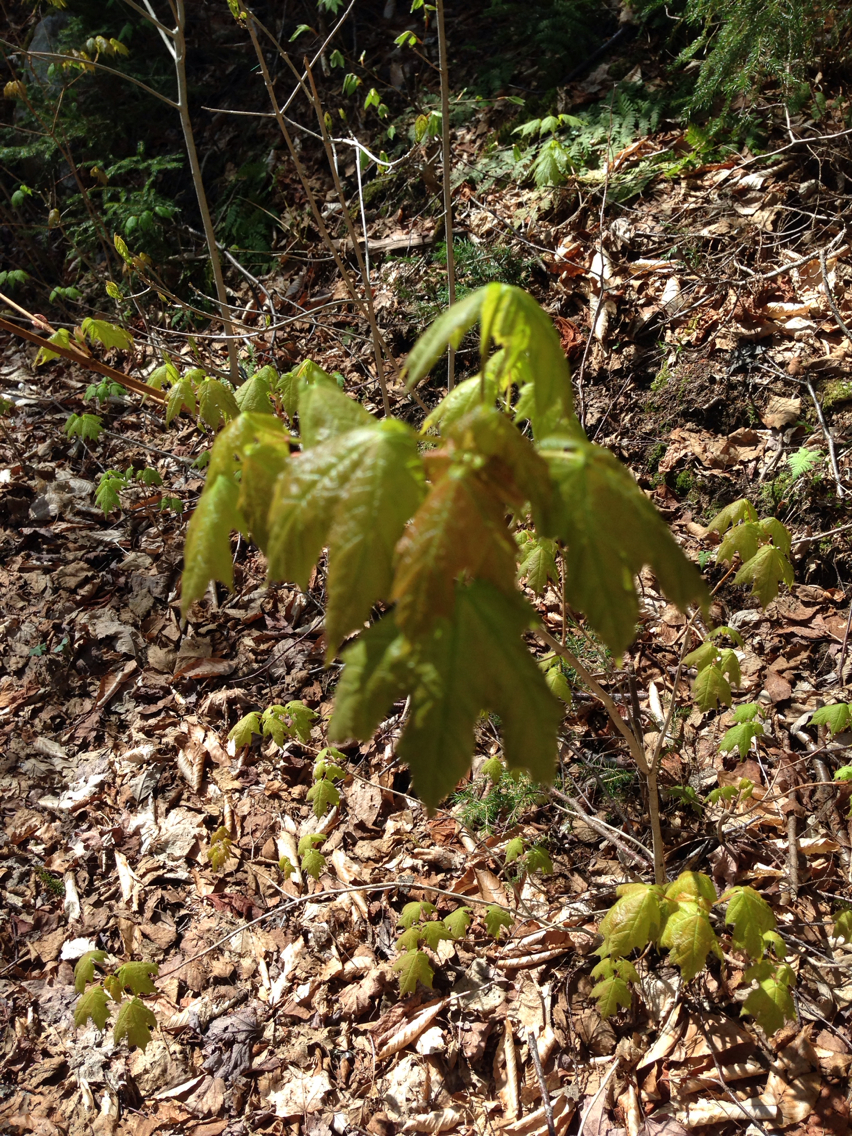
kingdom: Plantae
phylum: Tracheophyta
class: Magnoliopsida
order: Sapindales
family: Sapindaceae
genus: Acer
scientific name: Acer saccharum
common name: Sugar maple
